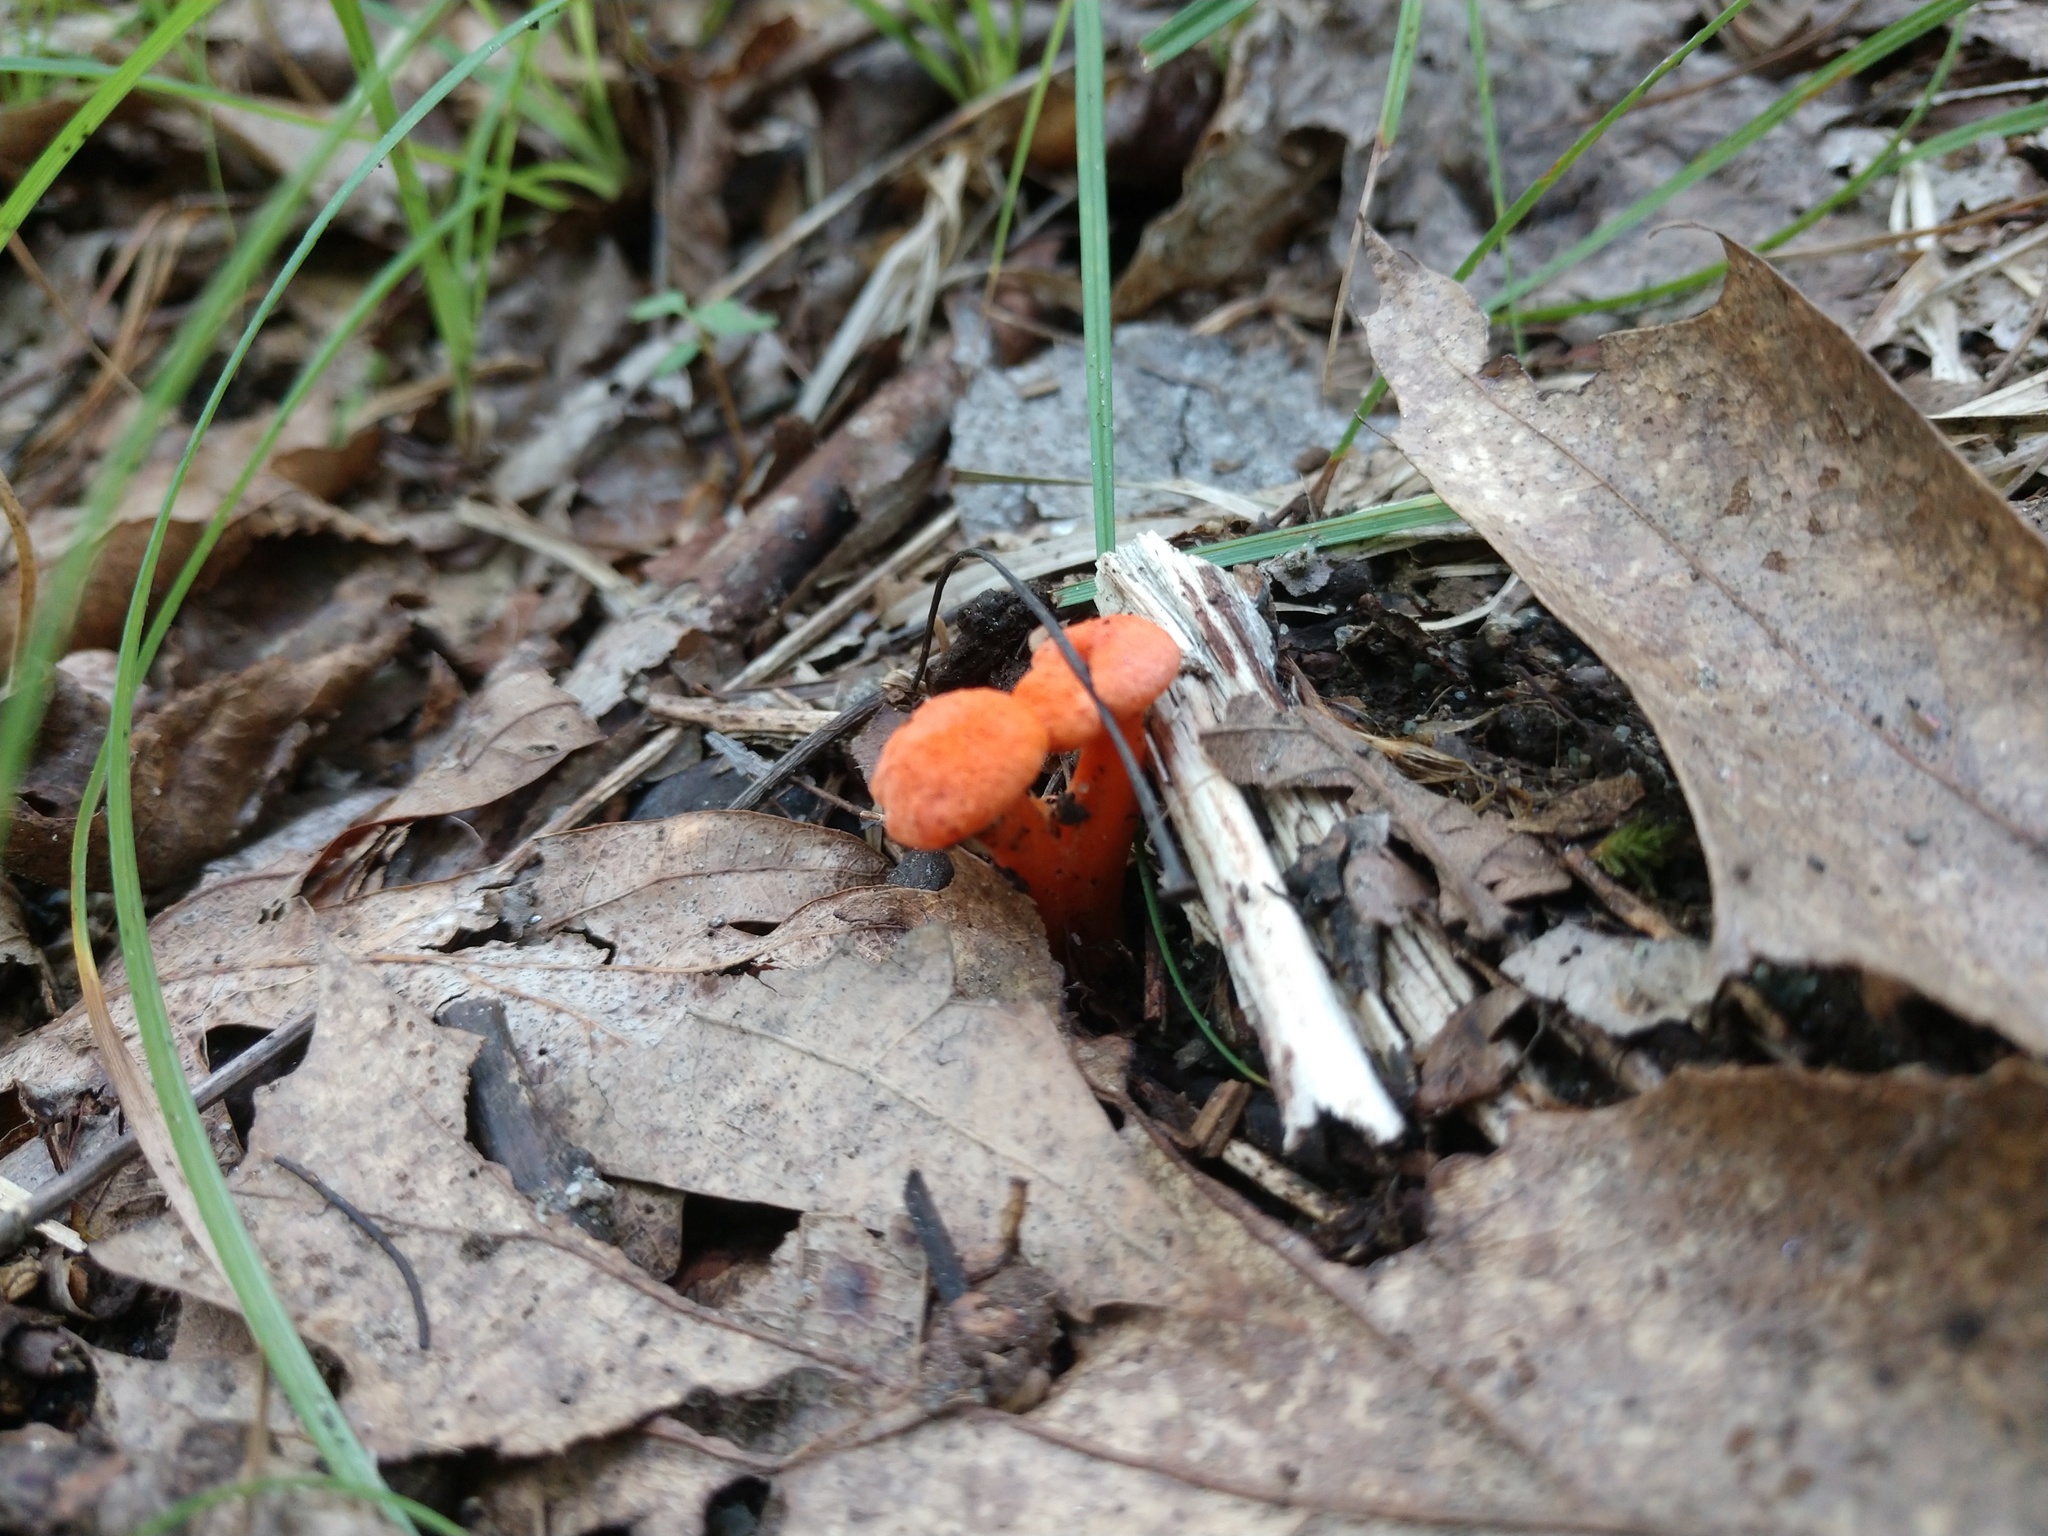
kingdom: Fungi
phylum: Basidiomycota
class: Agaricomycetes
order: Cantharellales
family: Hydnaceae
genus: Cantharellus
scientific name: Cantharellus cinnabarinus
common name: Cinnabar chanterelle
